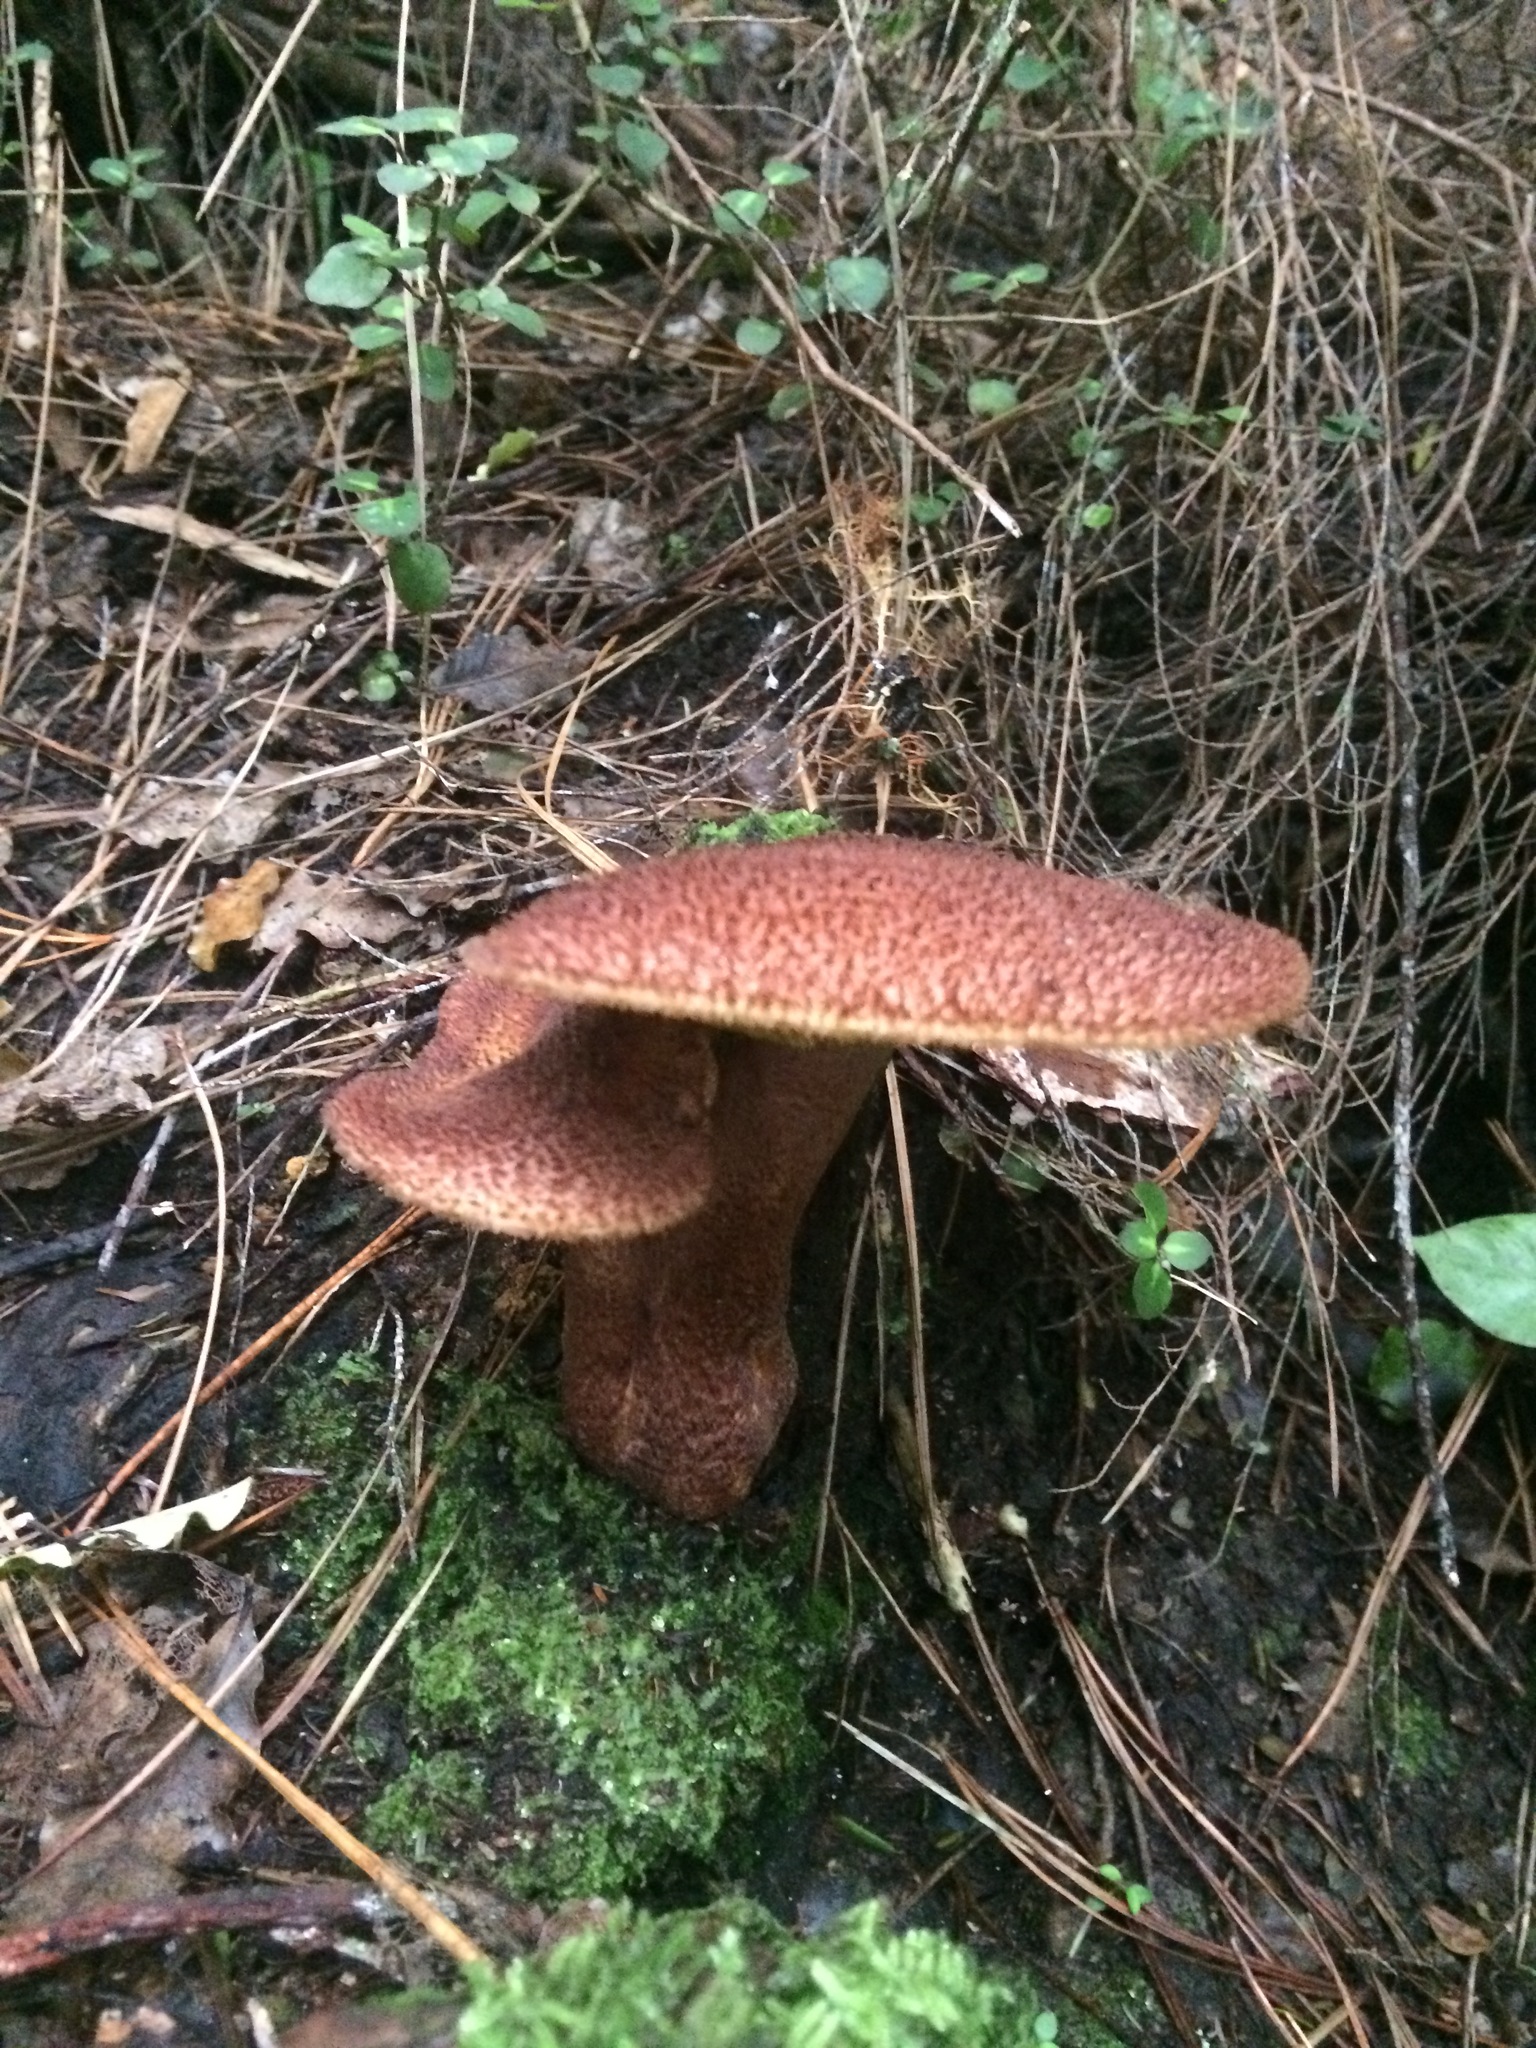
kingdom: Fungi
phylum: Basidiomycota
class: Agaricomycetes
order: Agaricales
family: Tricholomataceae
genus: Tricholomopsis
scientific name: Tricholomopsis scabra
